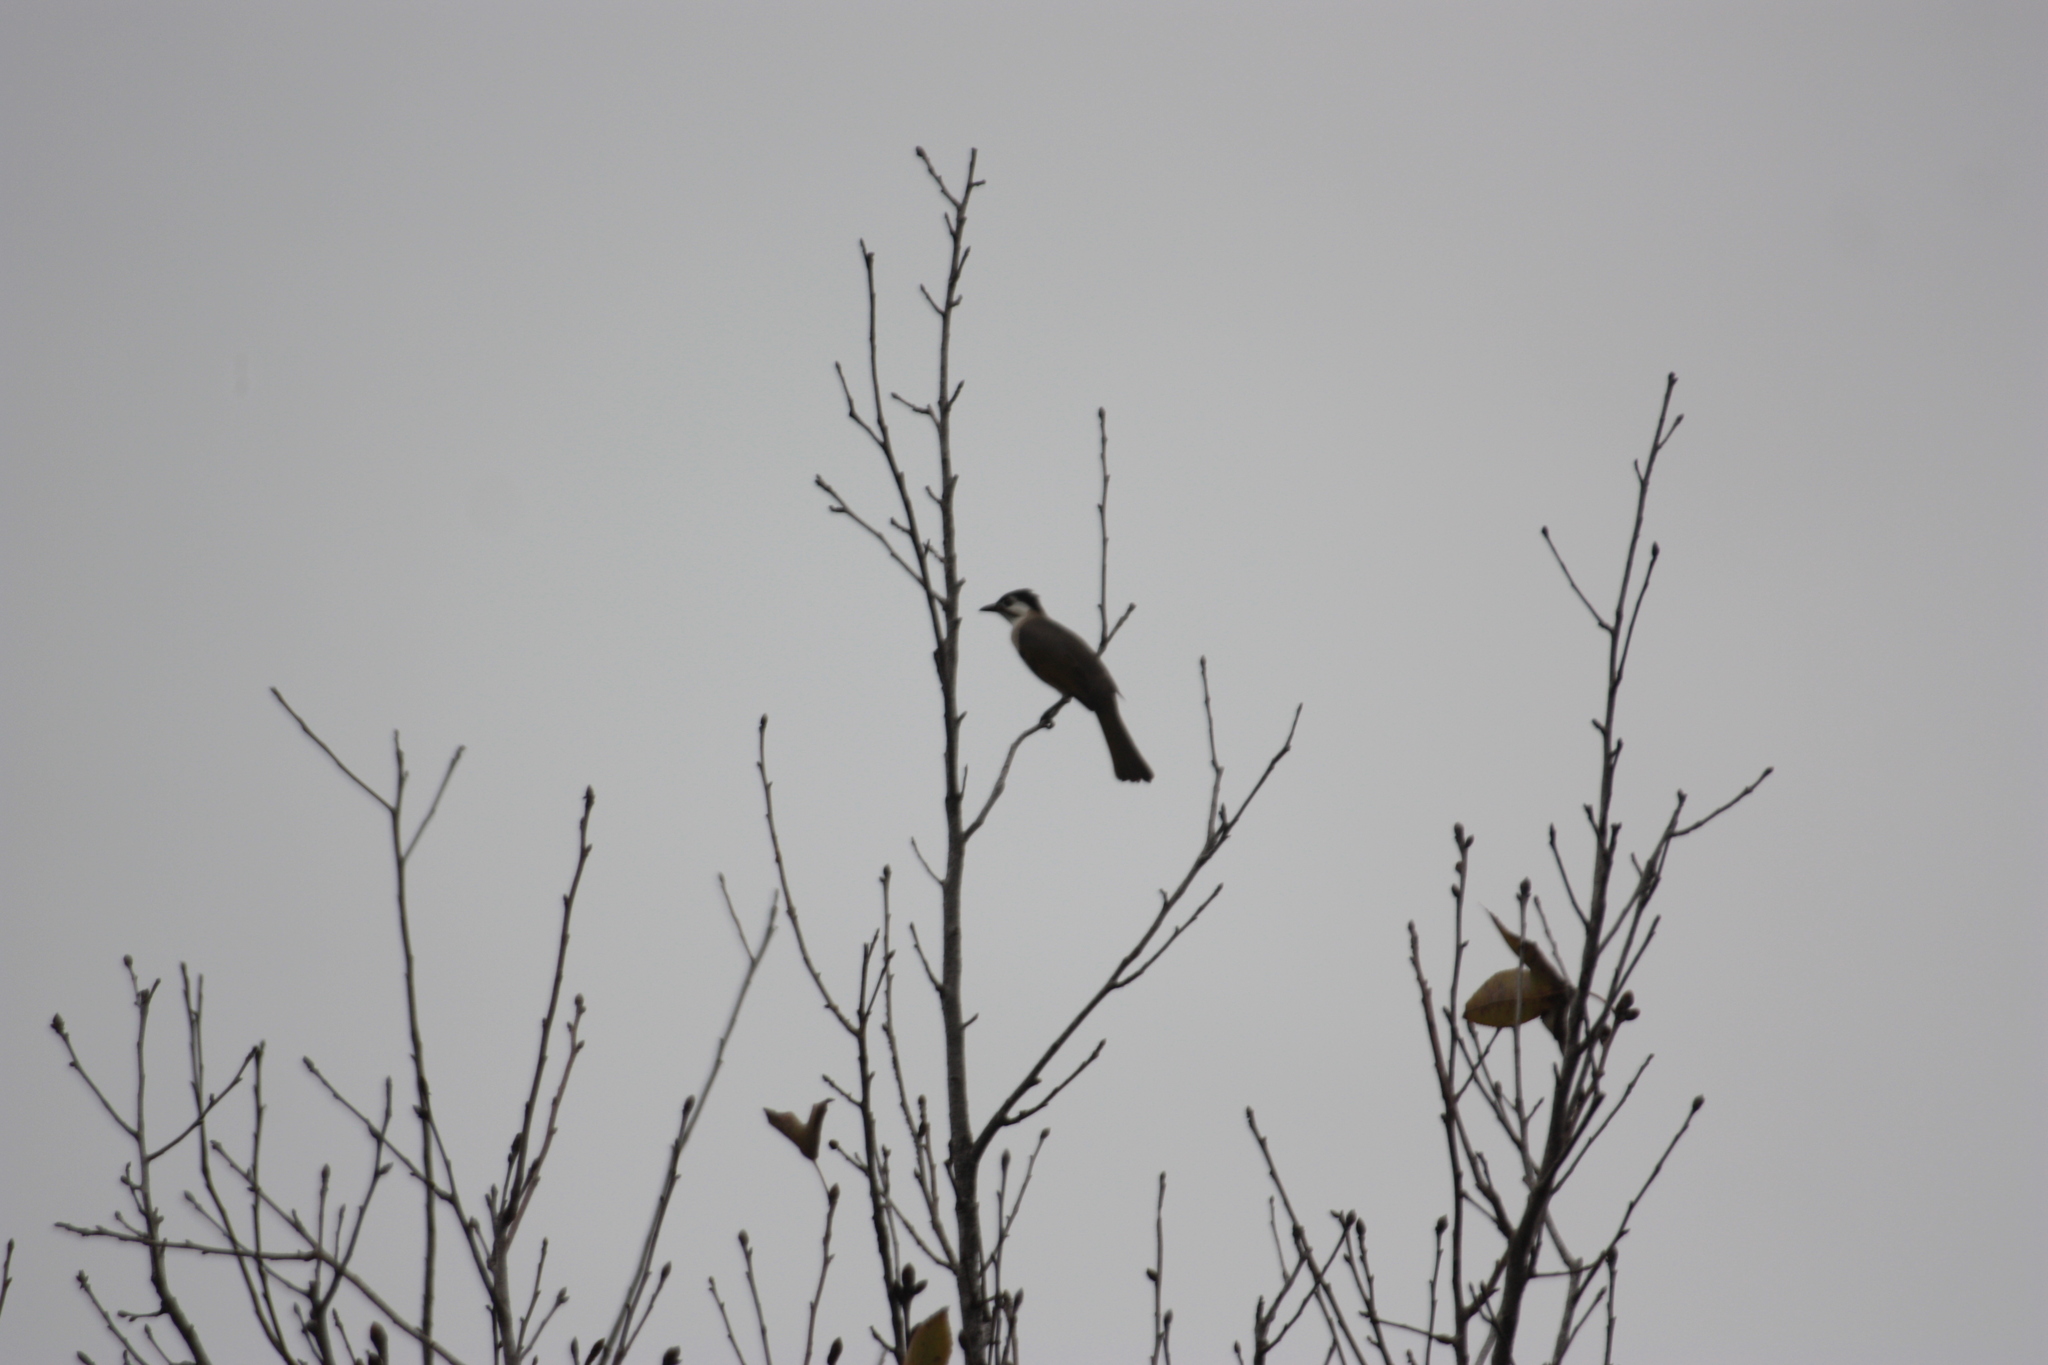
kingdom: Animalia
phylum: Chordata
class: Aves
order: Passeriformes
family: Pycnonotidae
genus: Pycnonotus
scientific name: Pycnonotus taivanus
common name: Styan's bulbul
